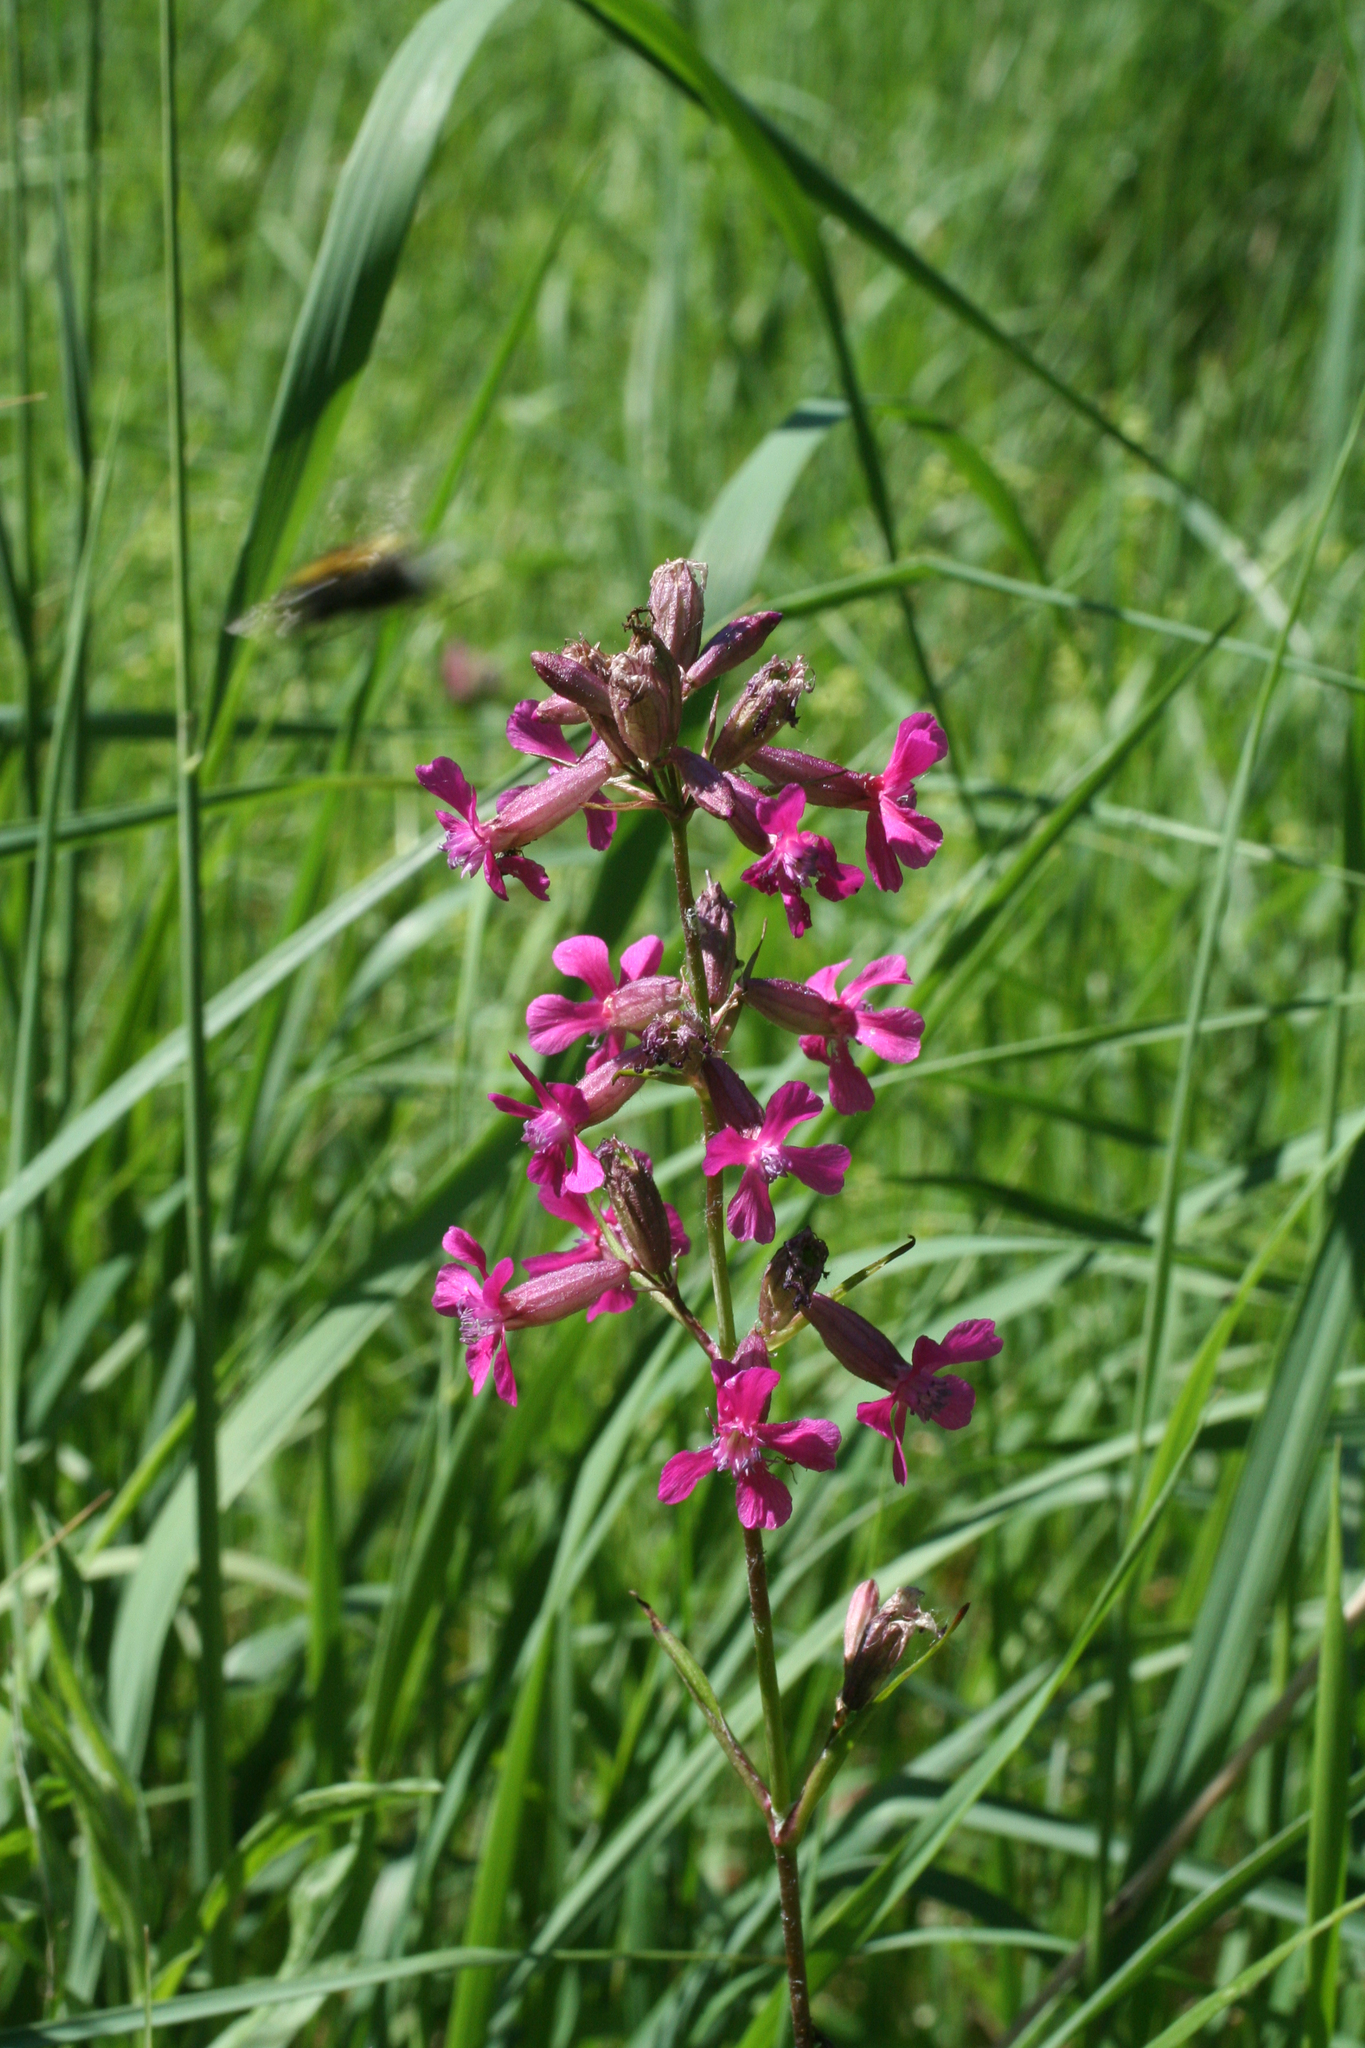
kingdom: Plantae
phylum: Tracheophyta
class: Magnoliopsida
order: Caryophyllales
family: Caryophyllaceae
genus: Viscaria
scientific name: Viscaria vulgaris
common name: Clammy campion
